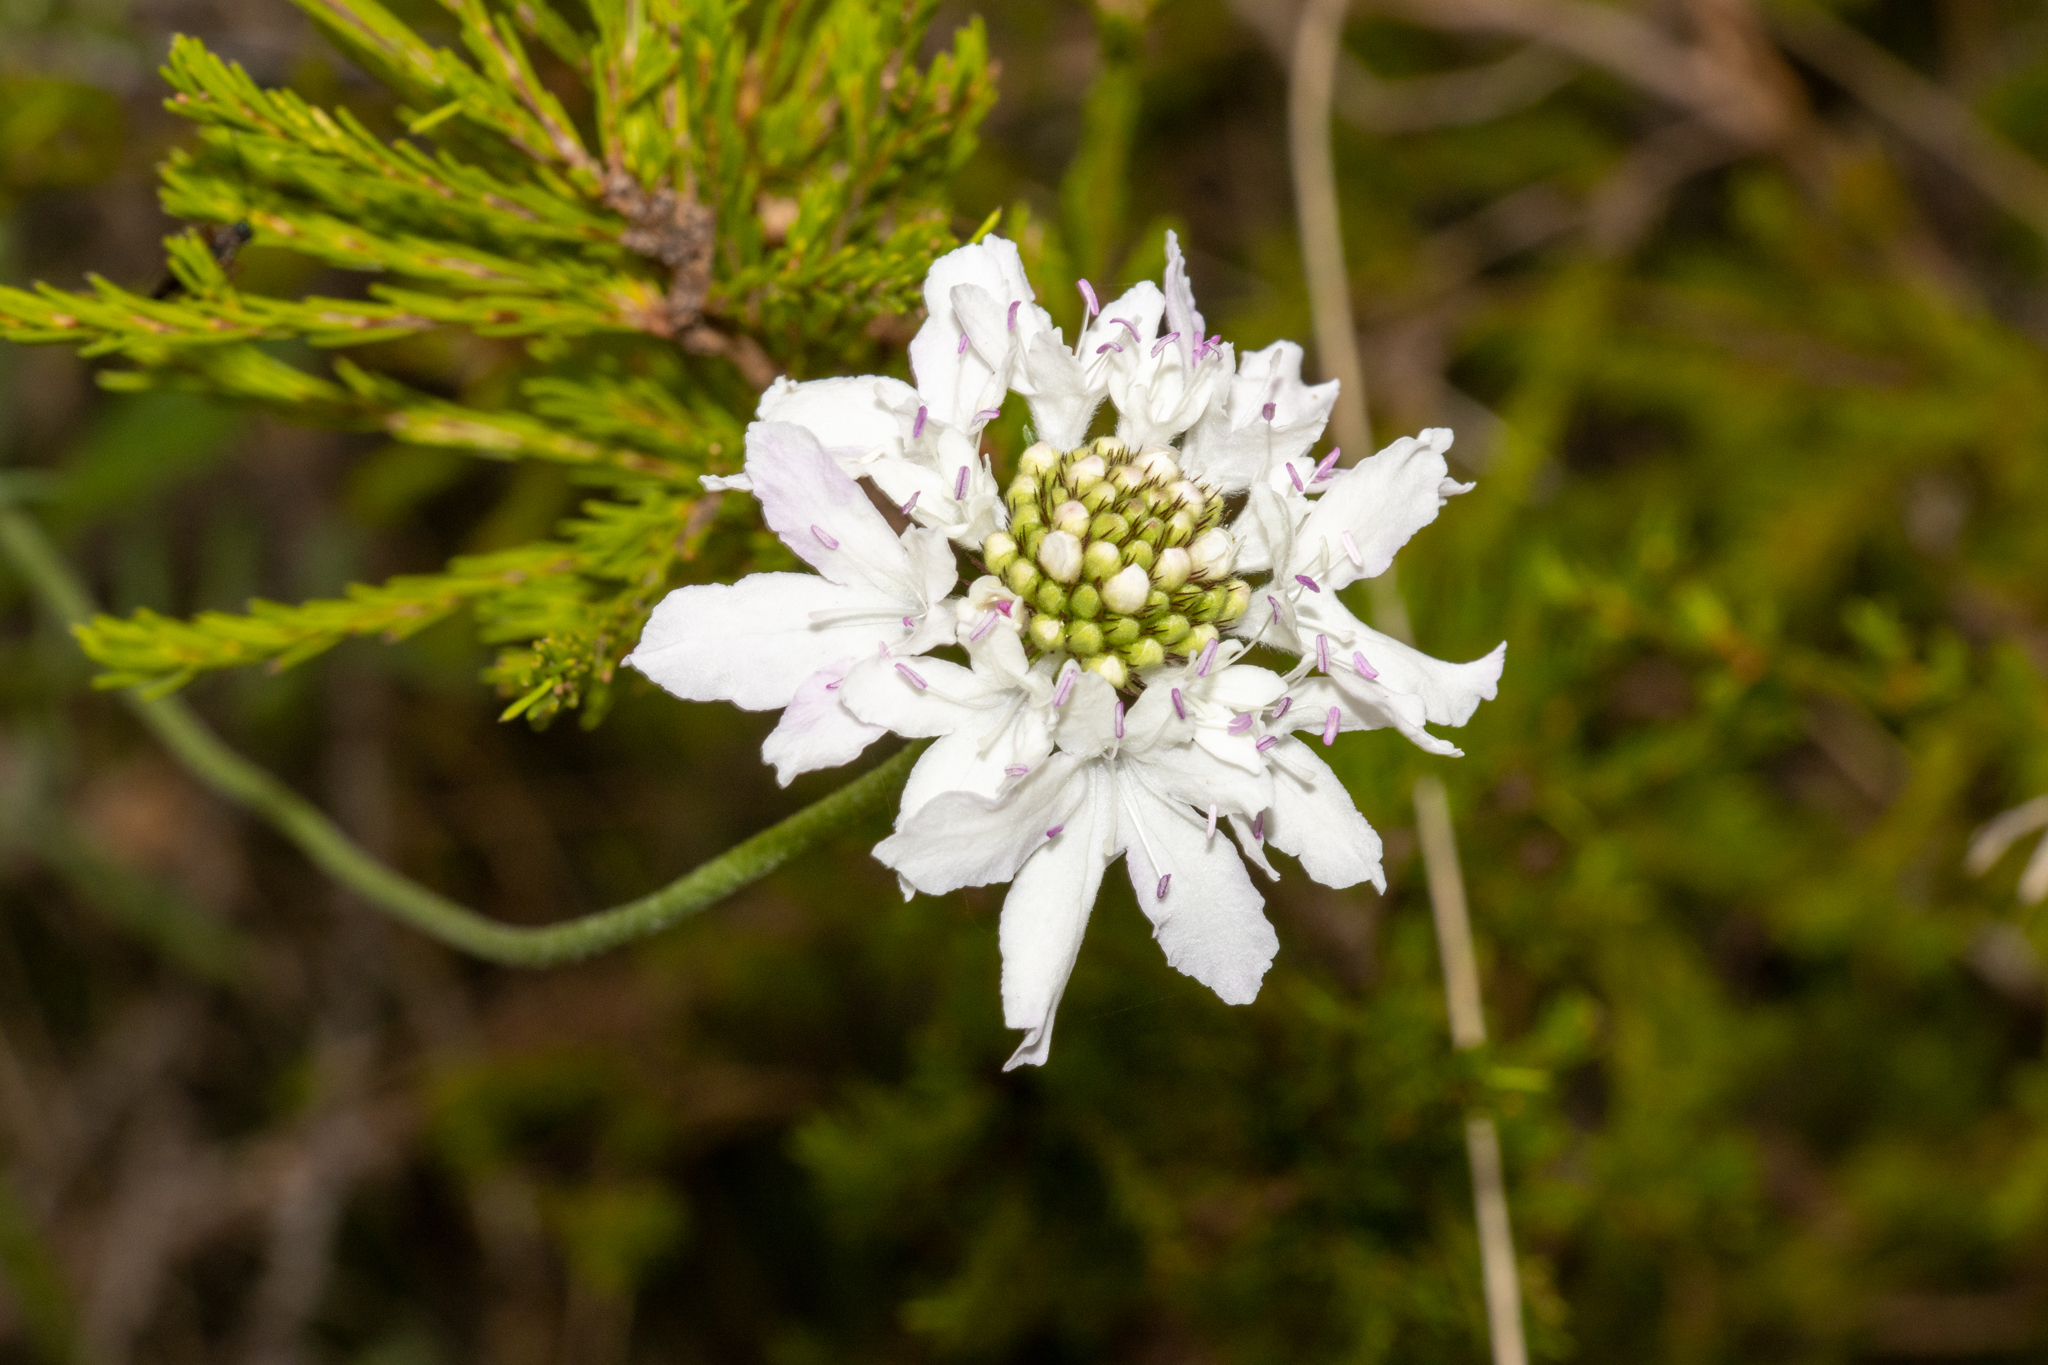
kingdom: Plantae
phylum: Tracheophyta
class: Magnoliopsida
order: Dipsacales
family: Caprifoliaceae
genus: Sixalix
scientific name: Sixalix atropurpurea
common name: Sweet scabious
